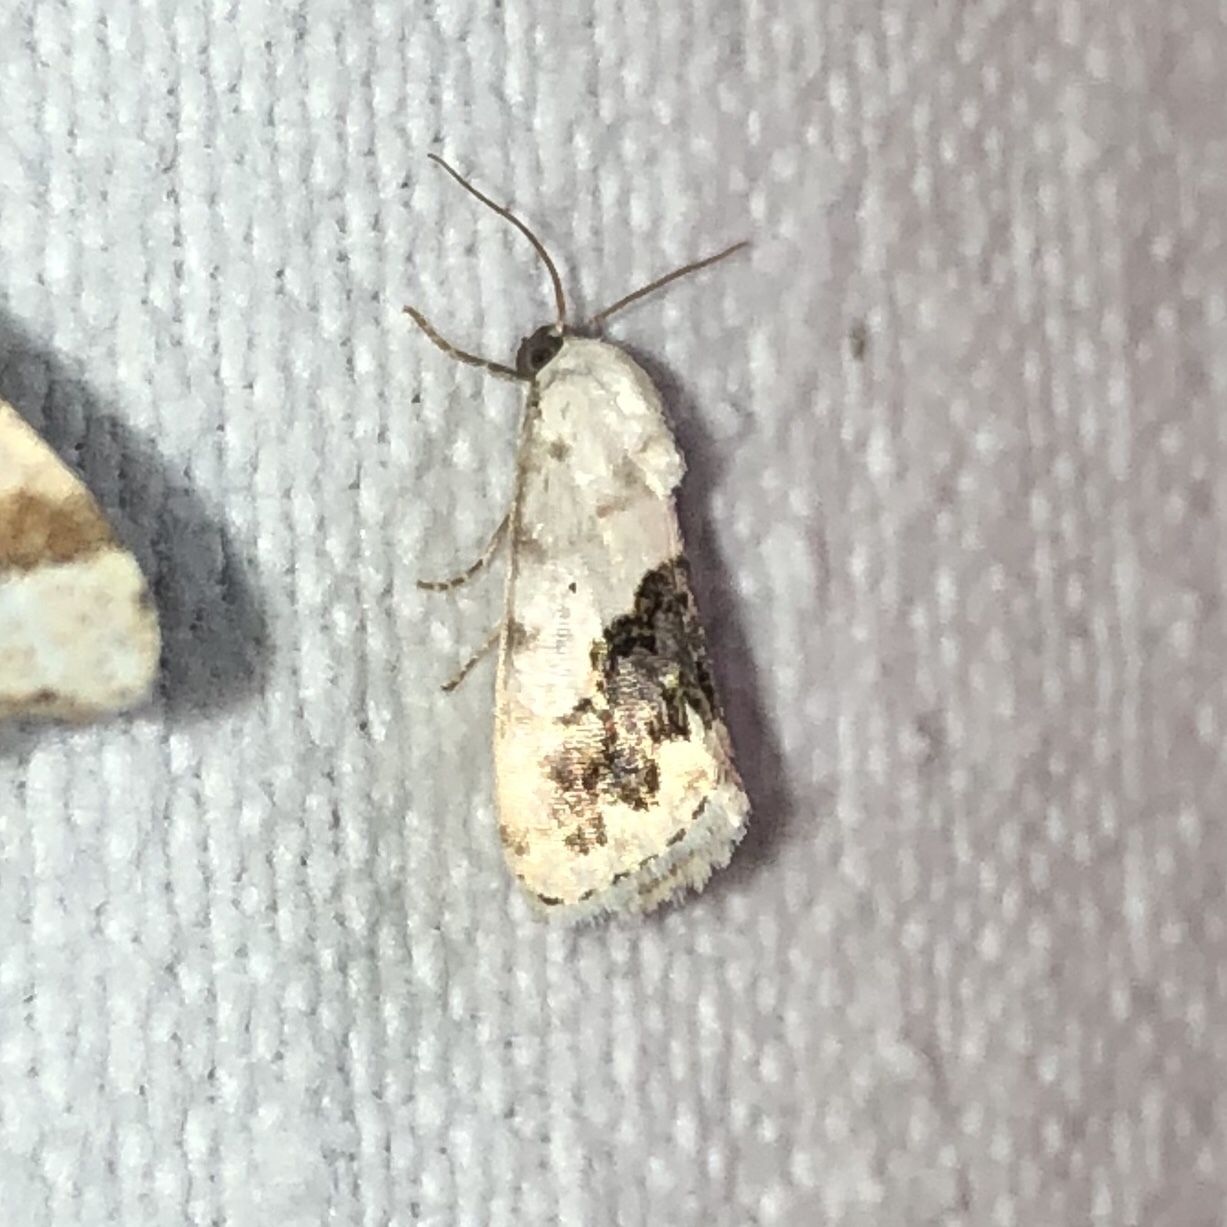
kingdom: Animalia
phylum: Arthropoda
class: Insecta
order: Lepidoptera
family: Noctuidae
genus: Acontia
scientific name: Acontia erastrioides
